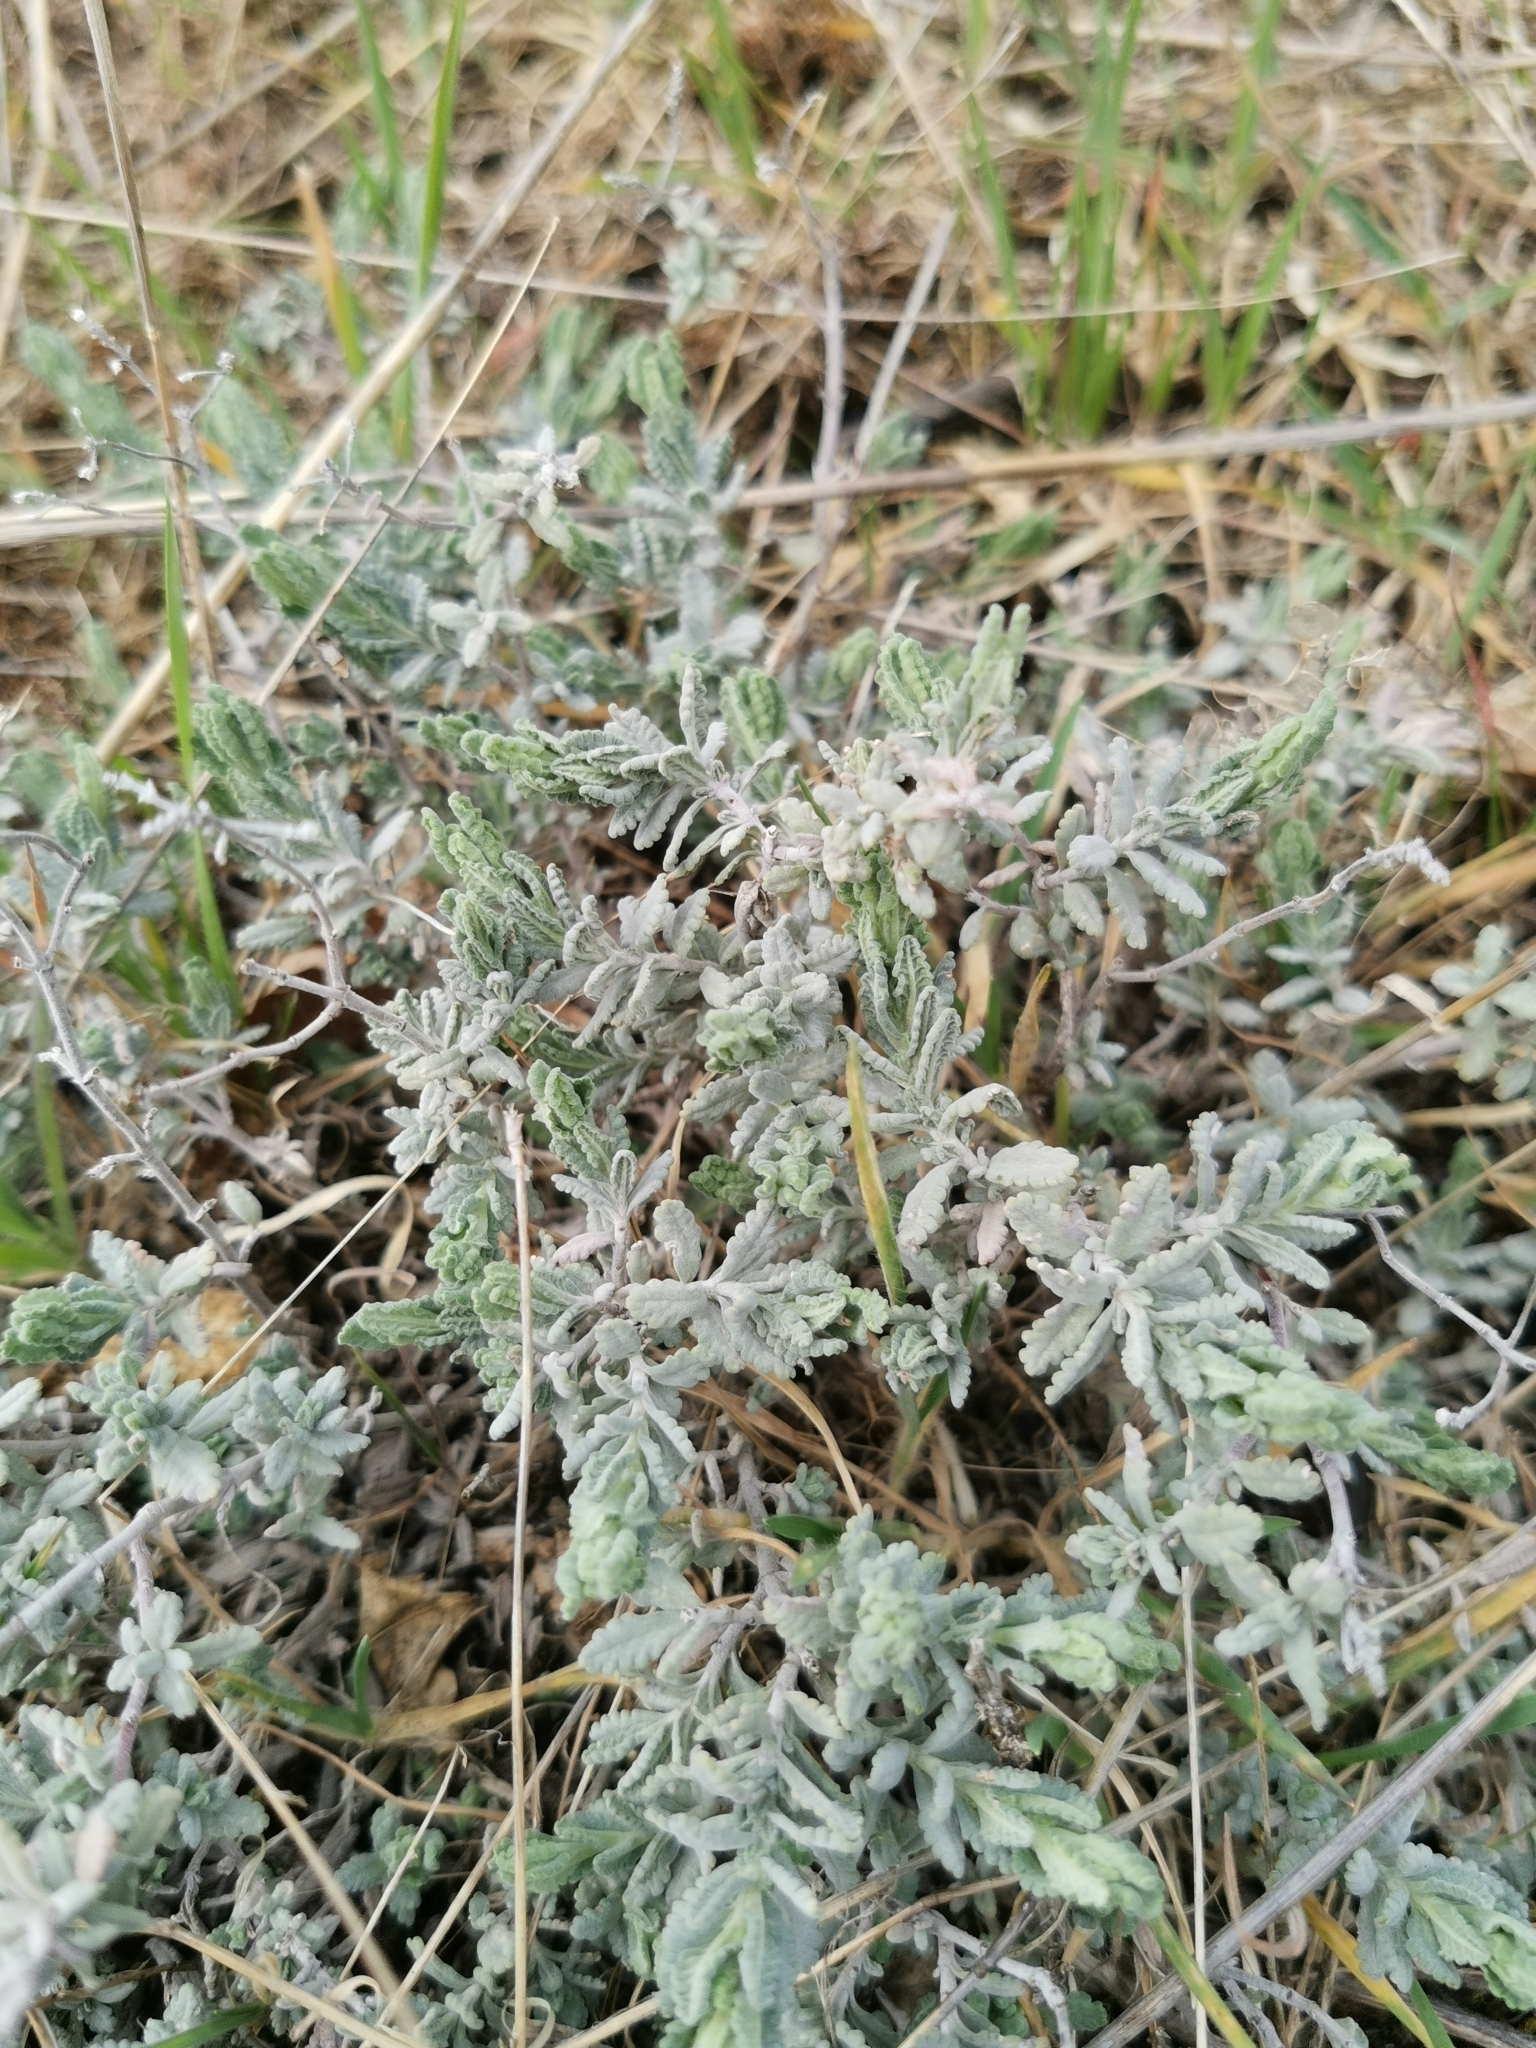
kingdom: Plantae
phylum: Tracheophyta
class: Magnoliopsida
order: Lamiales
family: Lamiaceae
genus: Teucrium
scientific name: Teucrium polium
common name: Poley
